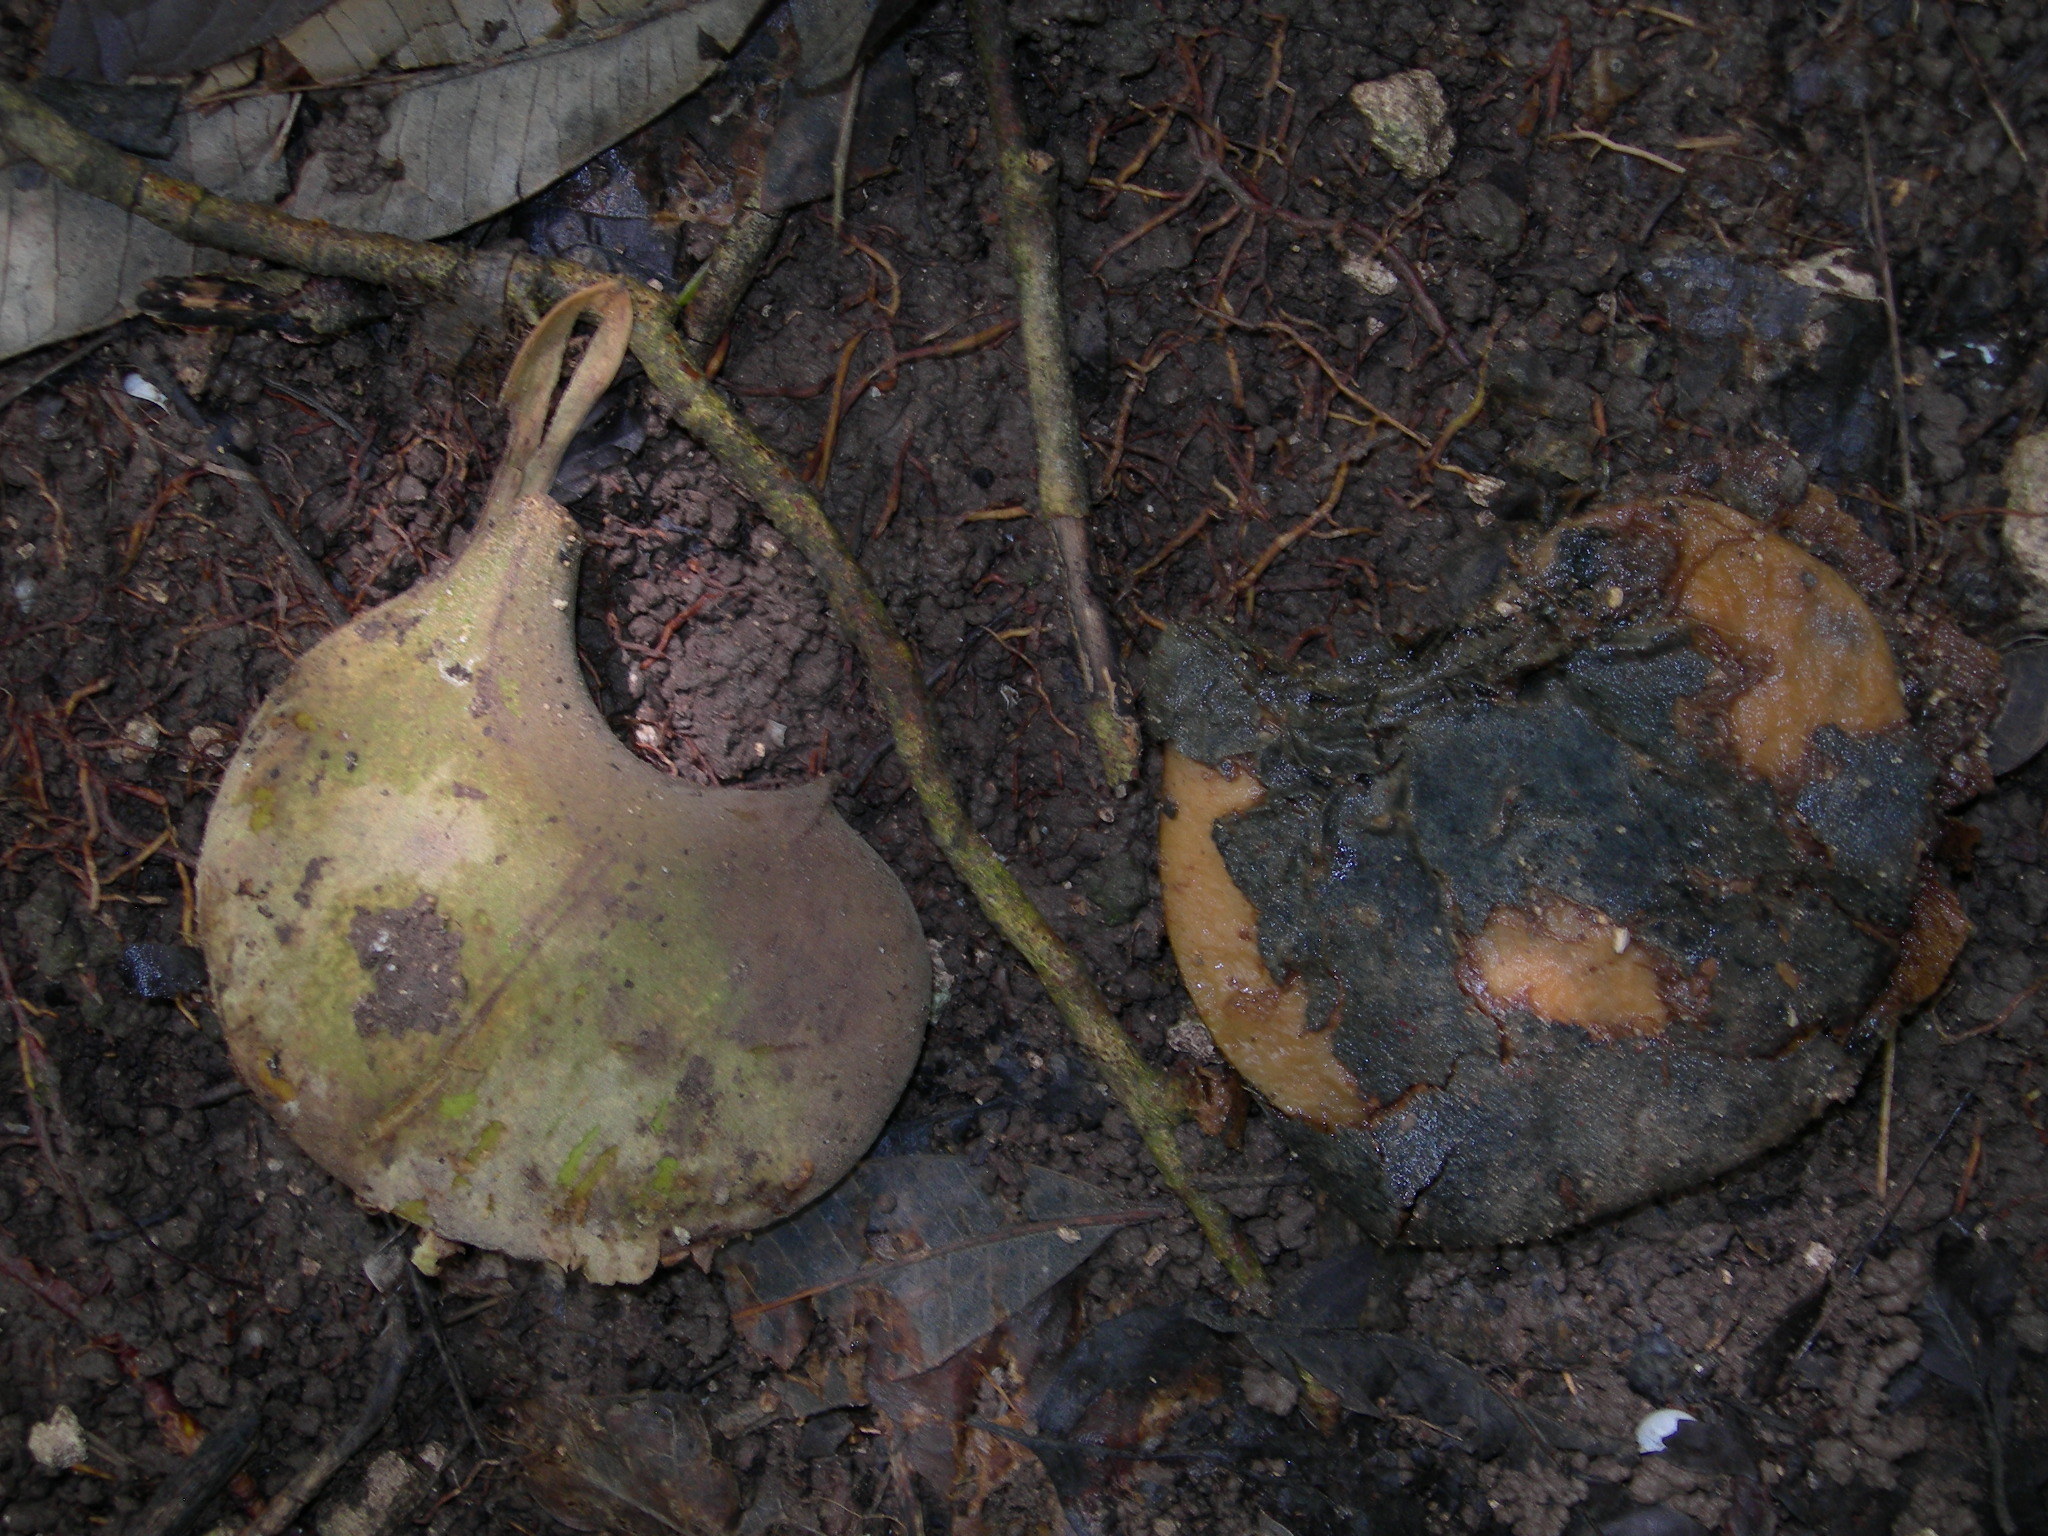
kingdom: Plantae
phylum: Tracheophyta
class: Magnoliopsida
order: Gentianales
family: Apocynaceae
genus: Aspidosperma
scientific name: Aspidosperma megalocarpon
